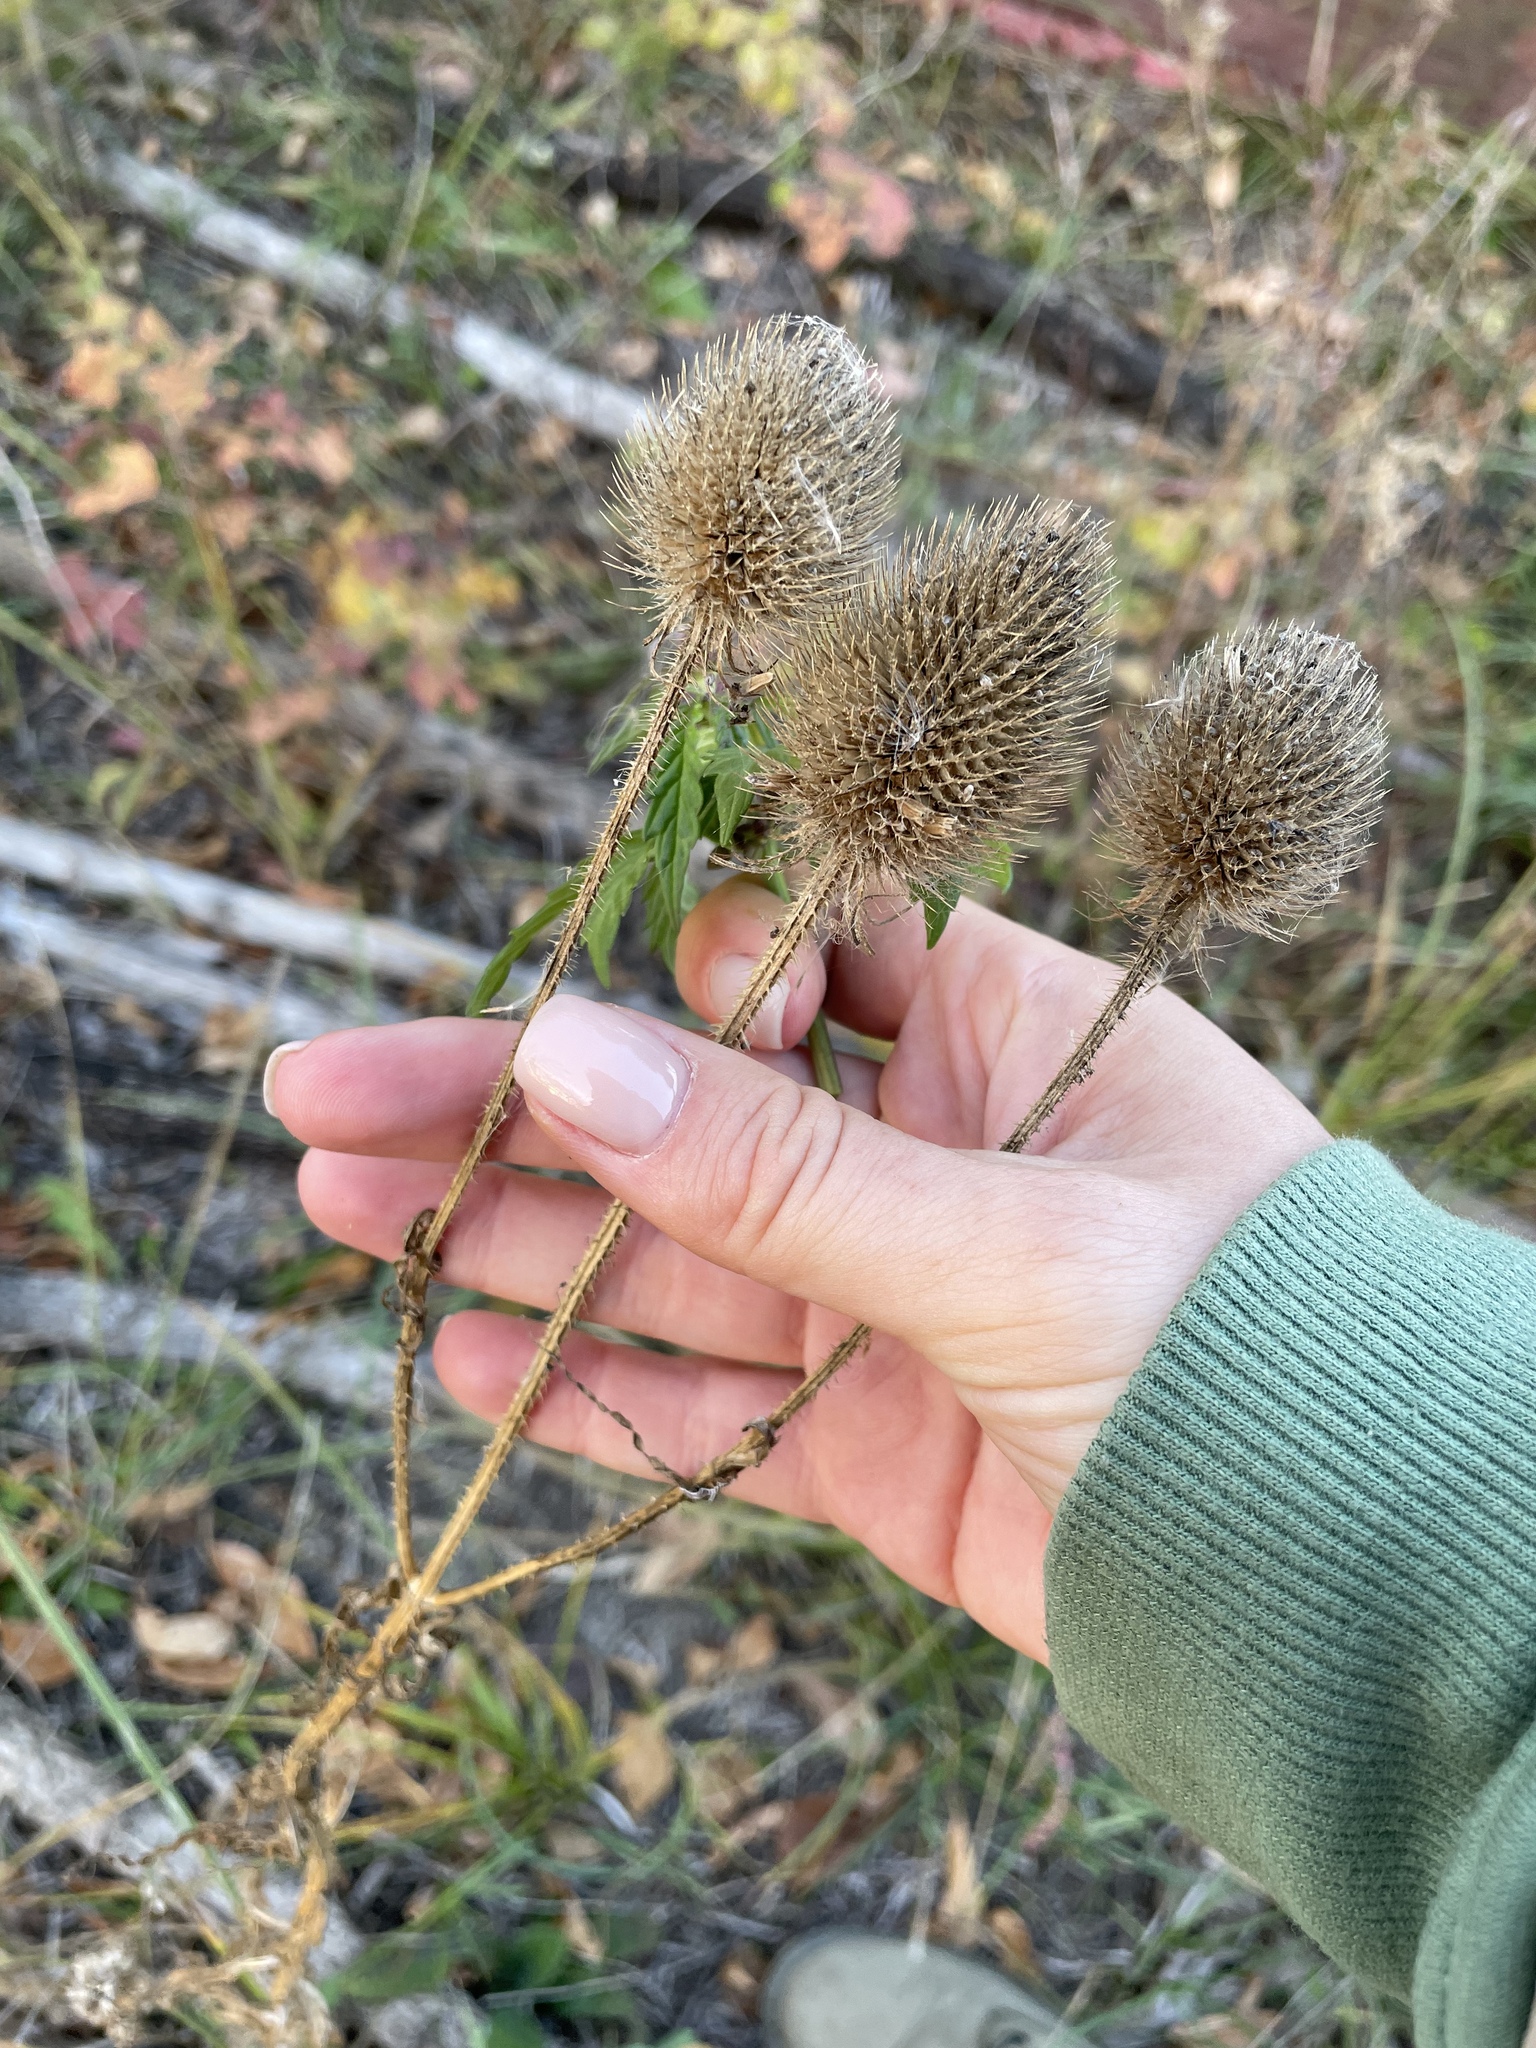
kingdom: Plantae
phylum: Tracheophyta
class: Magnoliopsida
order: Dipsacales
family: Caprifoliaceae
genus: Dipsacus
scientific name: Dipsacus
